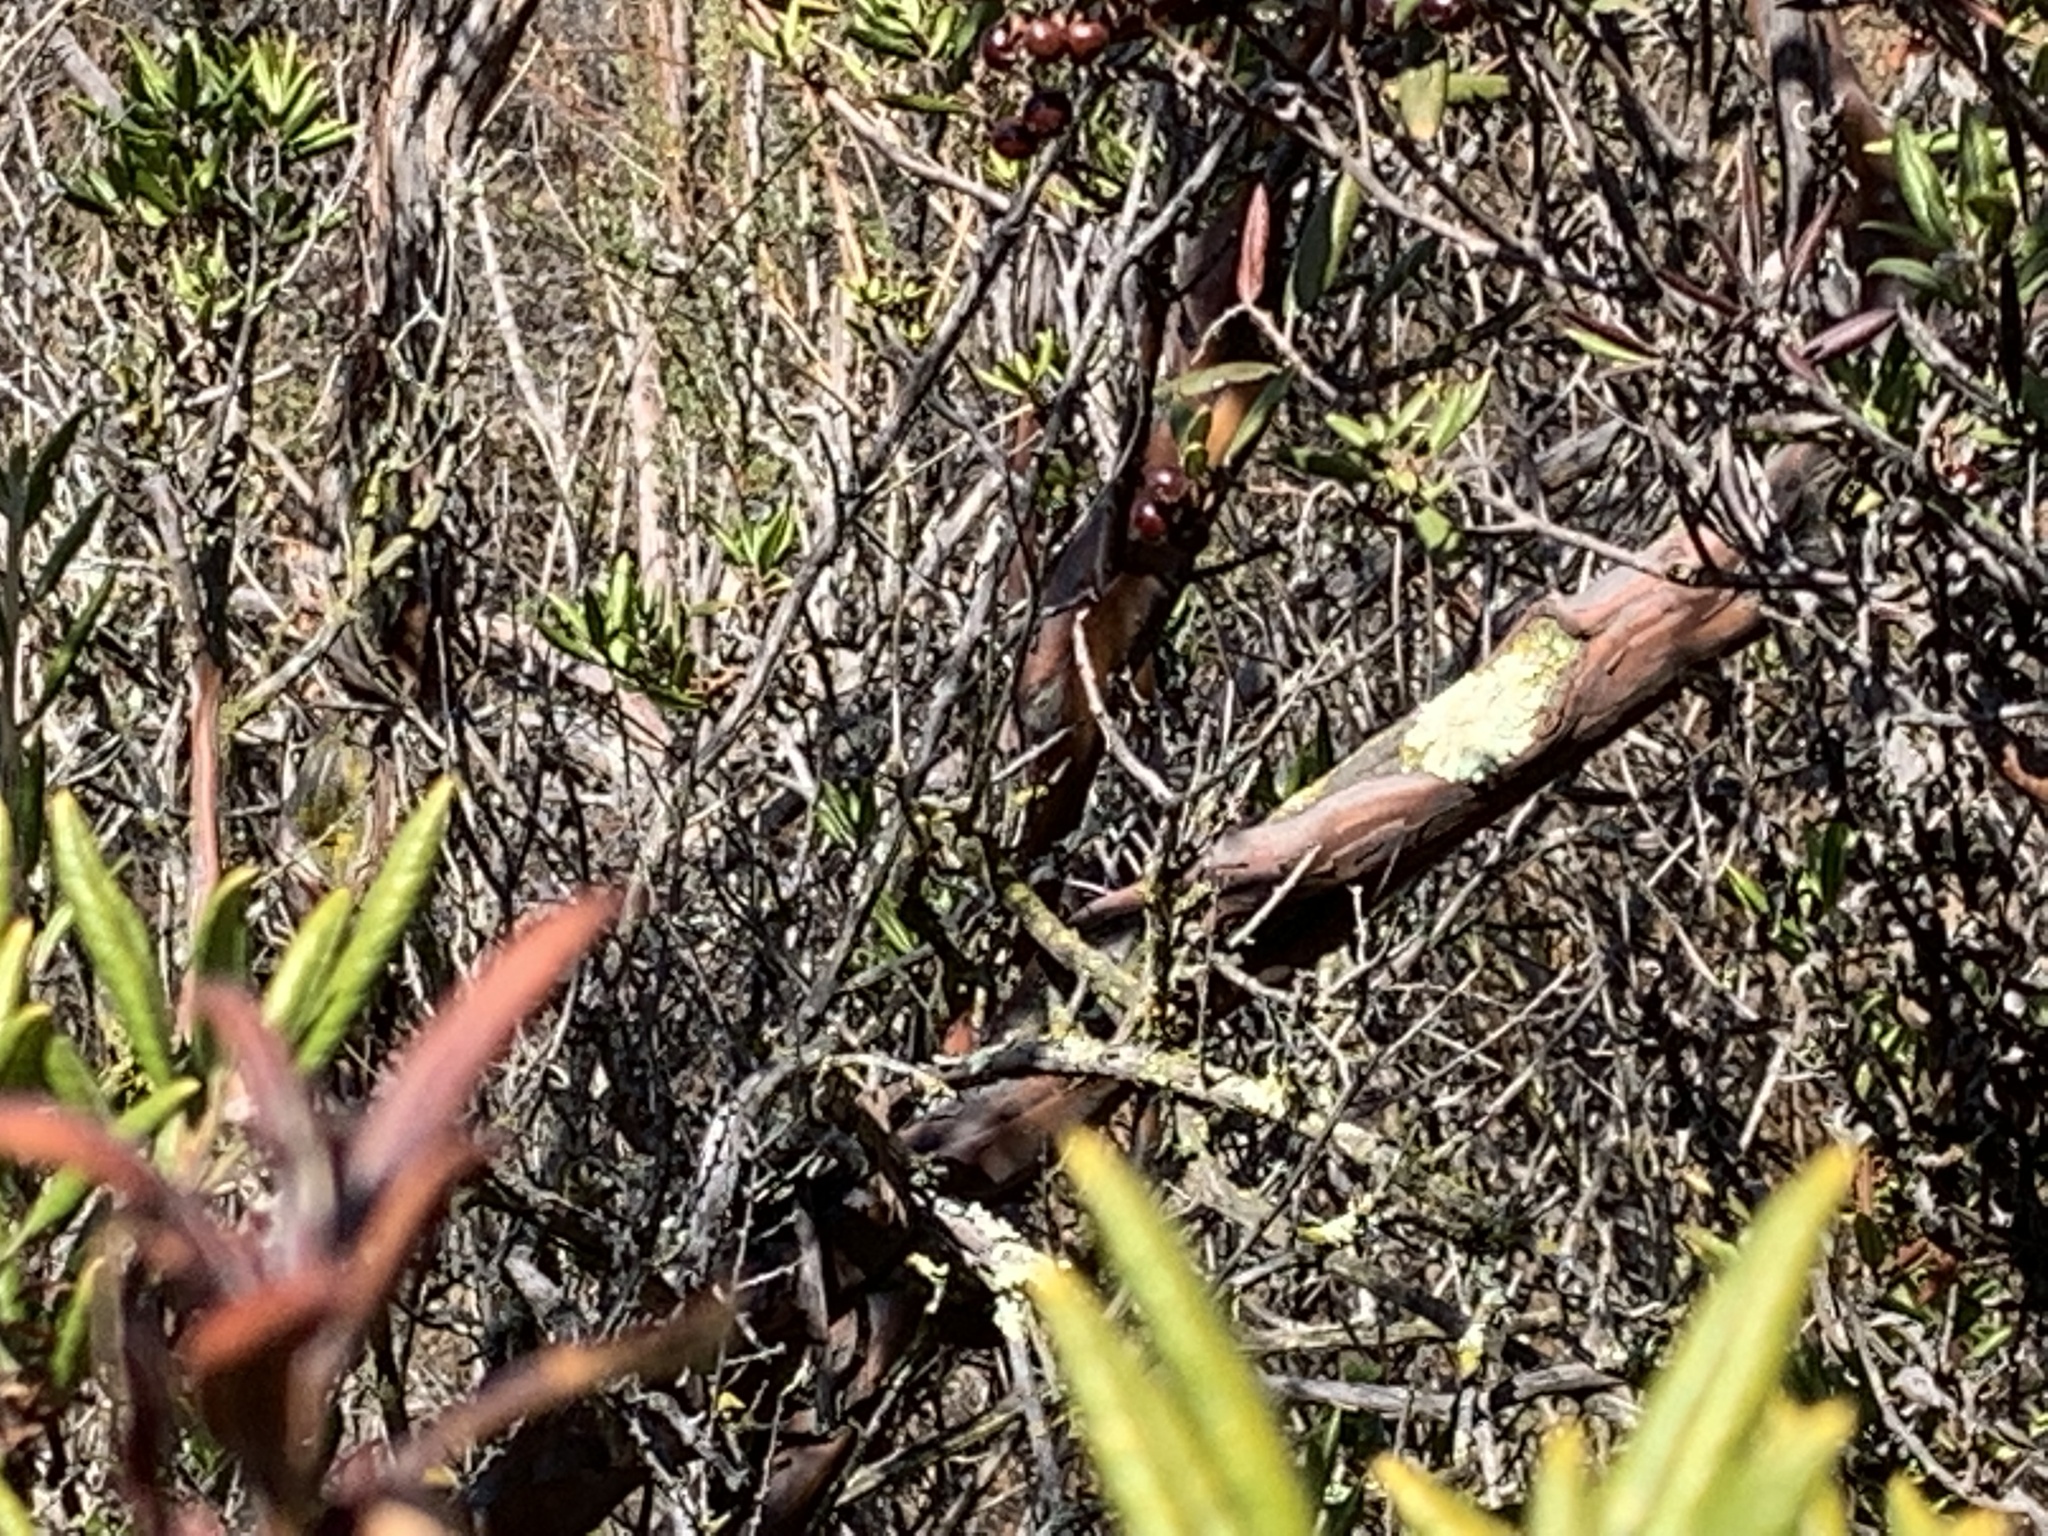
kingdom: Plantae
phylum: Tracheophyta
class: Magnoliopsida
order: Ericales
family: Ericaceae
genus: Arctostaphylos
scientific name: Arctostaphylos bicolor
